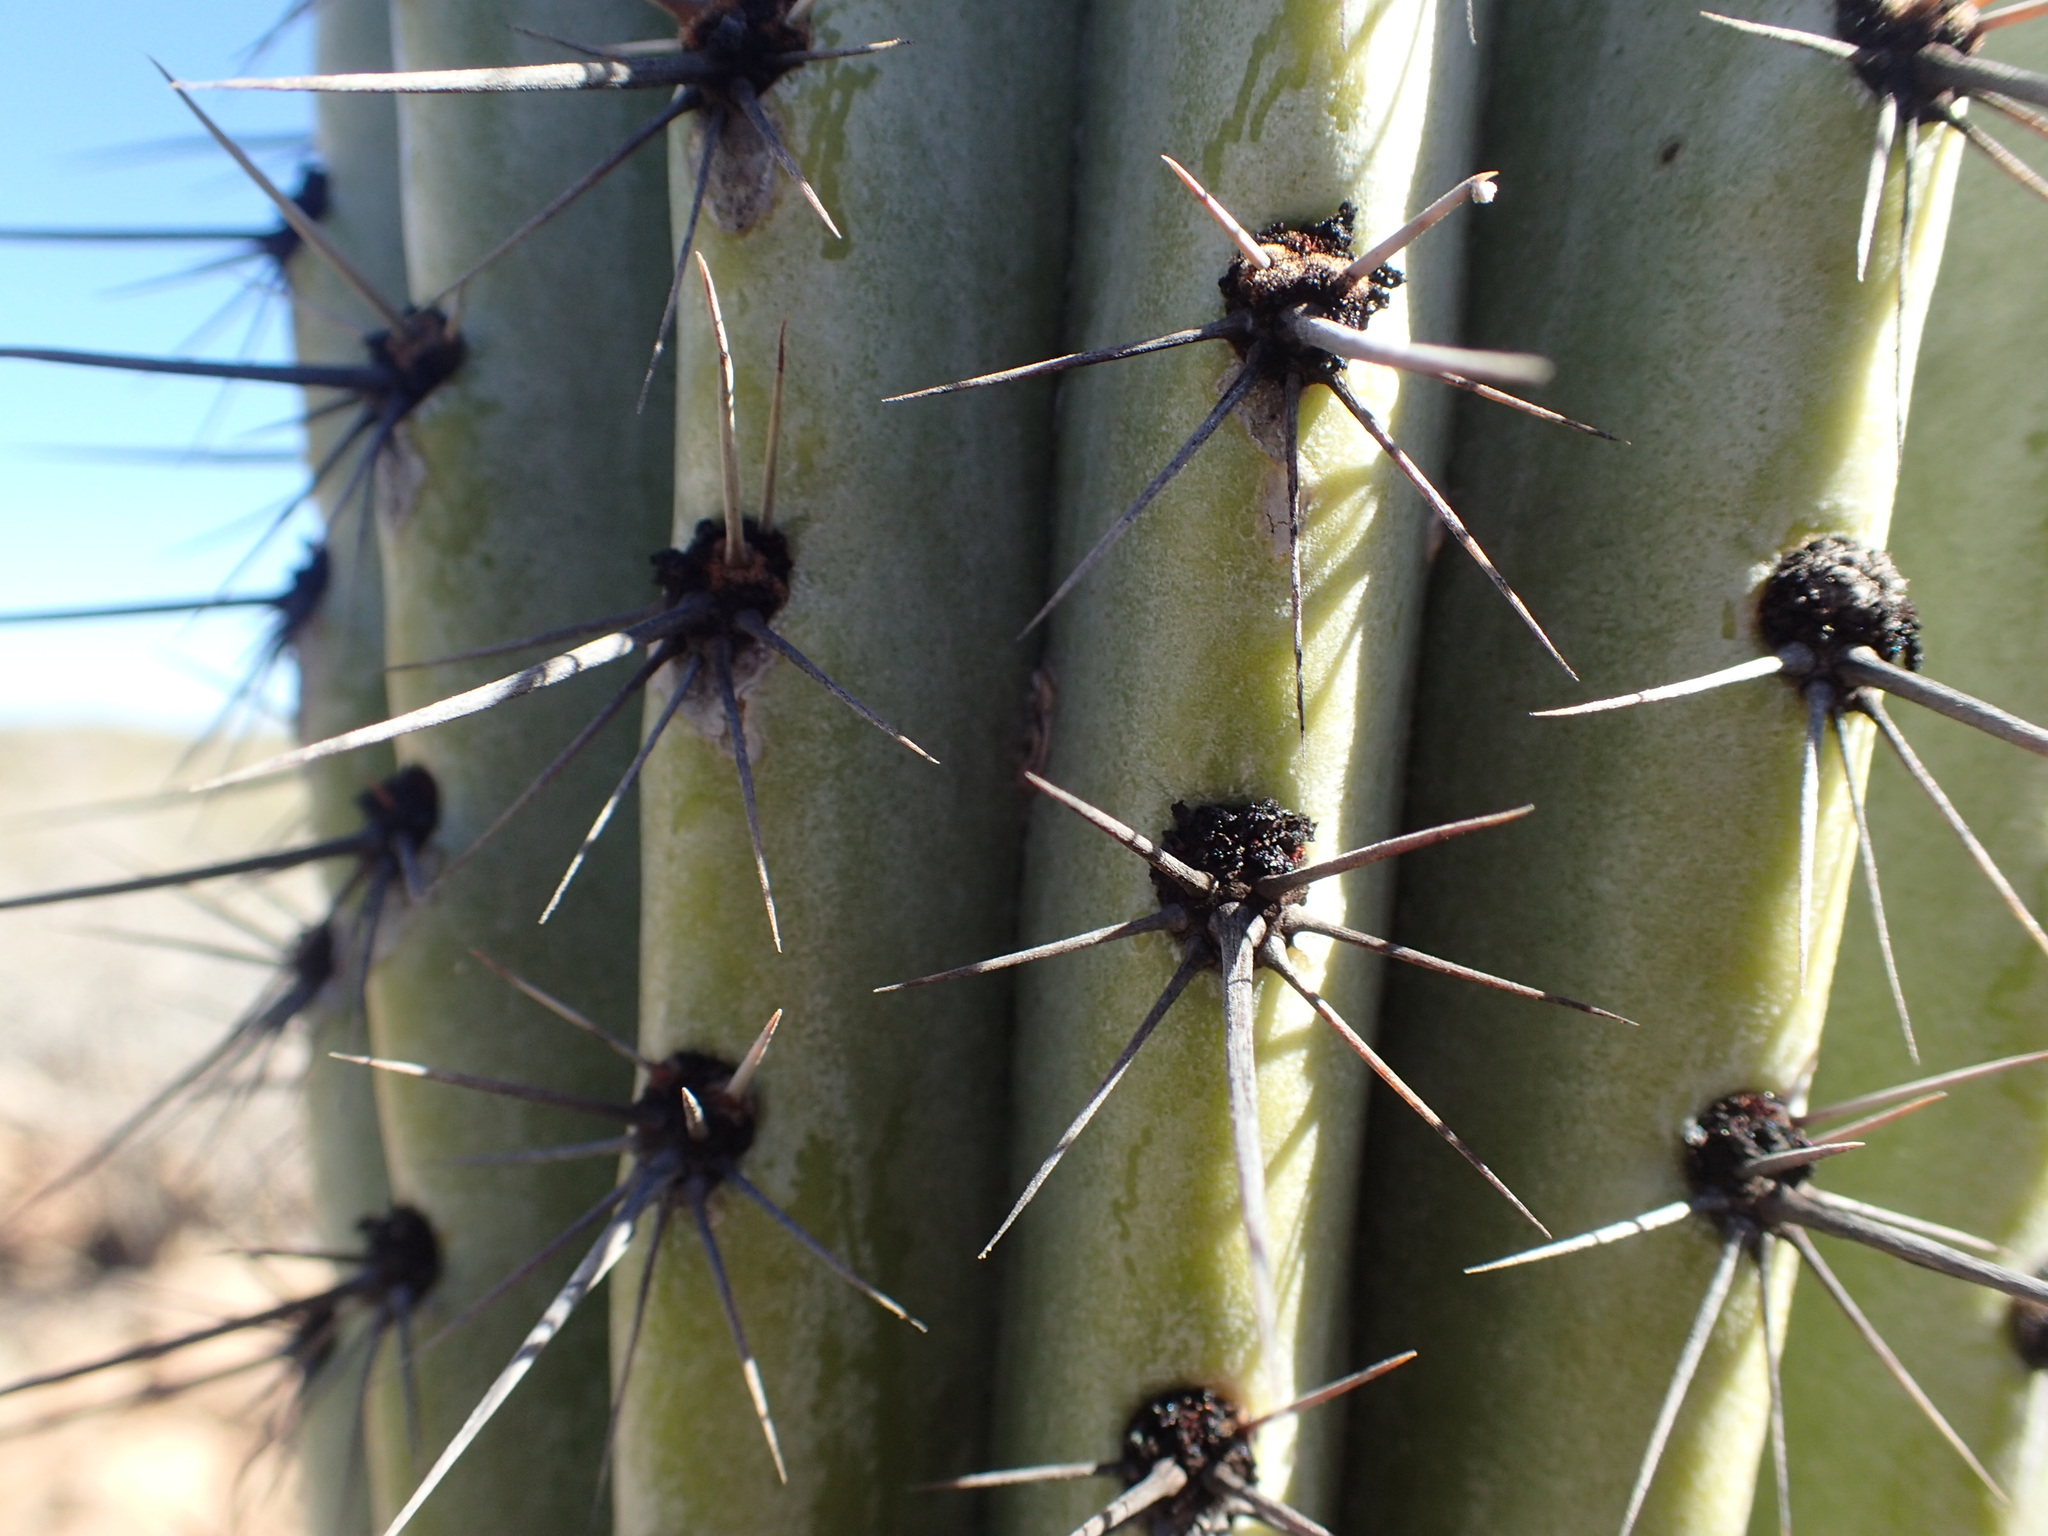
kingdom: Plantae
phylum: Tracheophyta
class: Magnoliopsida
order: Caryophyllales
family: Cactaceae
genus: Stenocereus
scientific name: Stenocereus thurberi
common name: Organ pipe cactus
